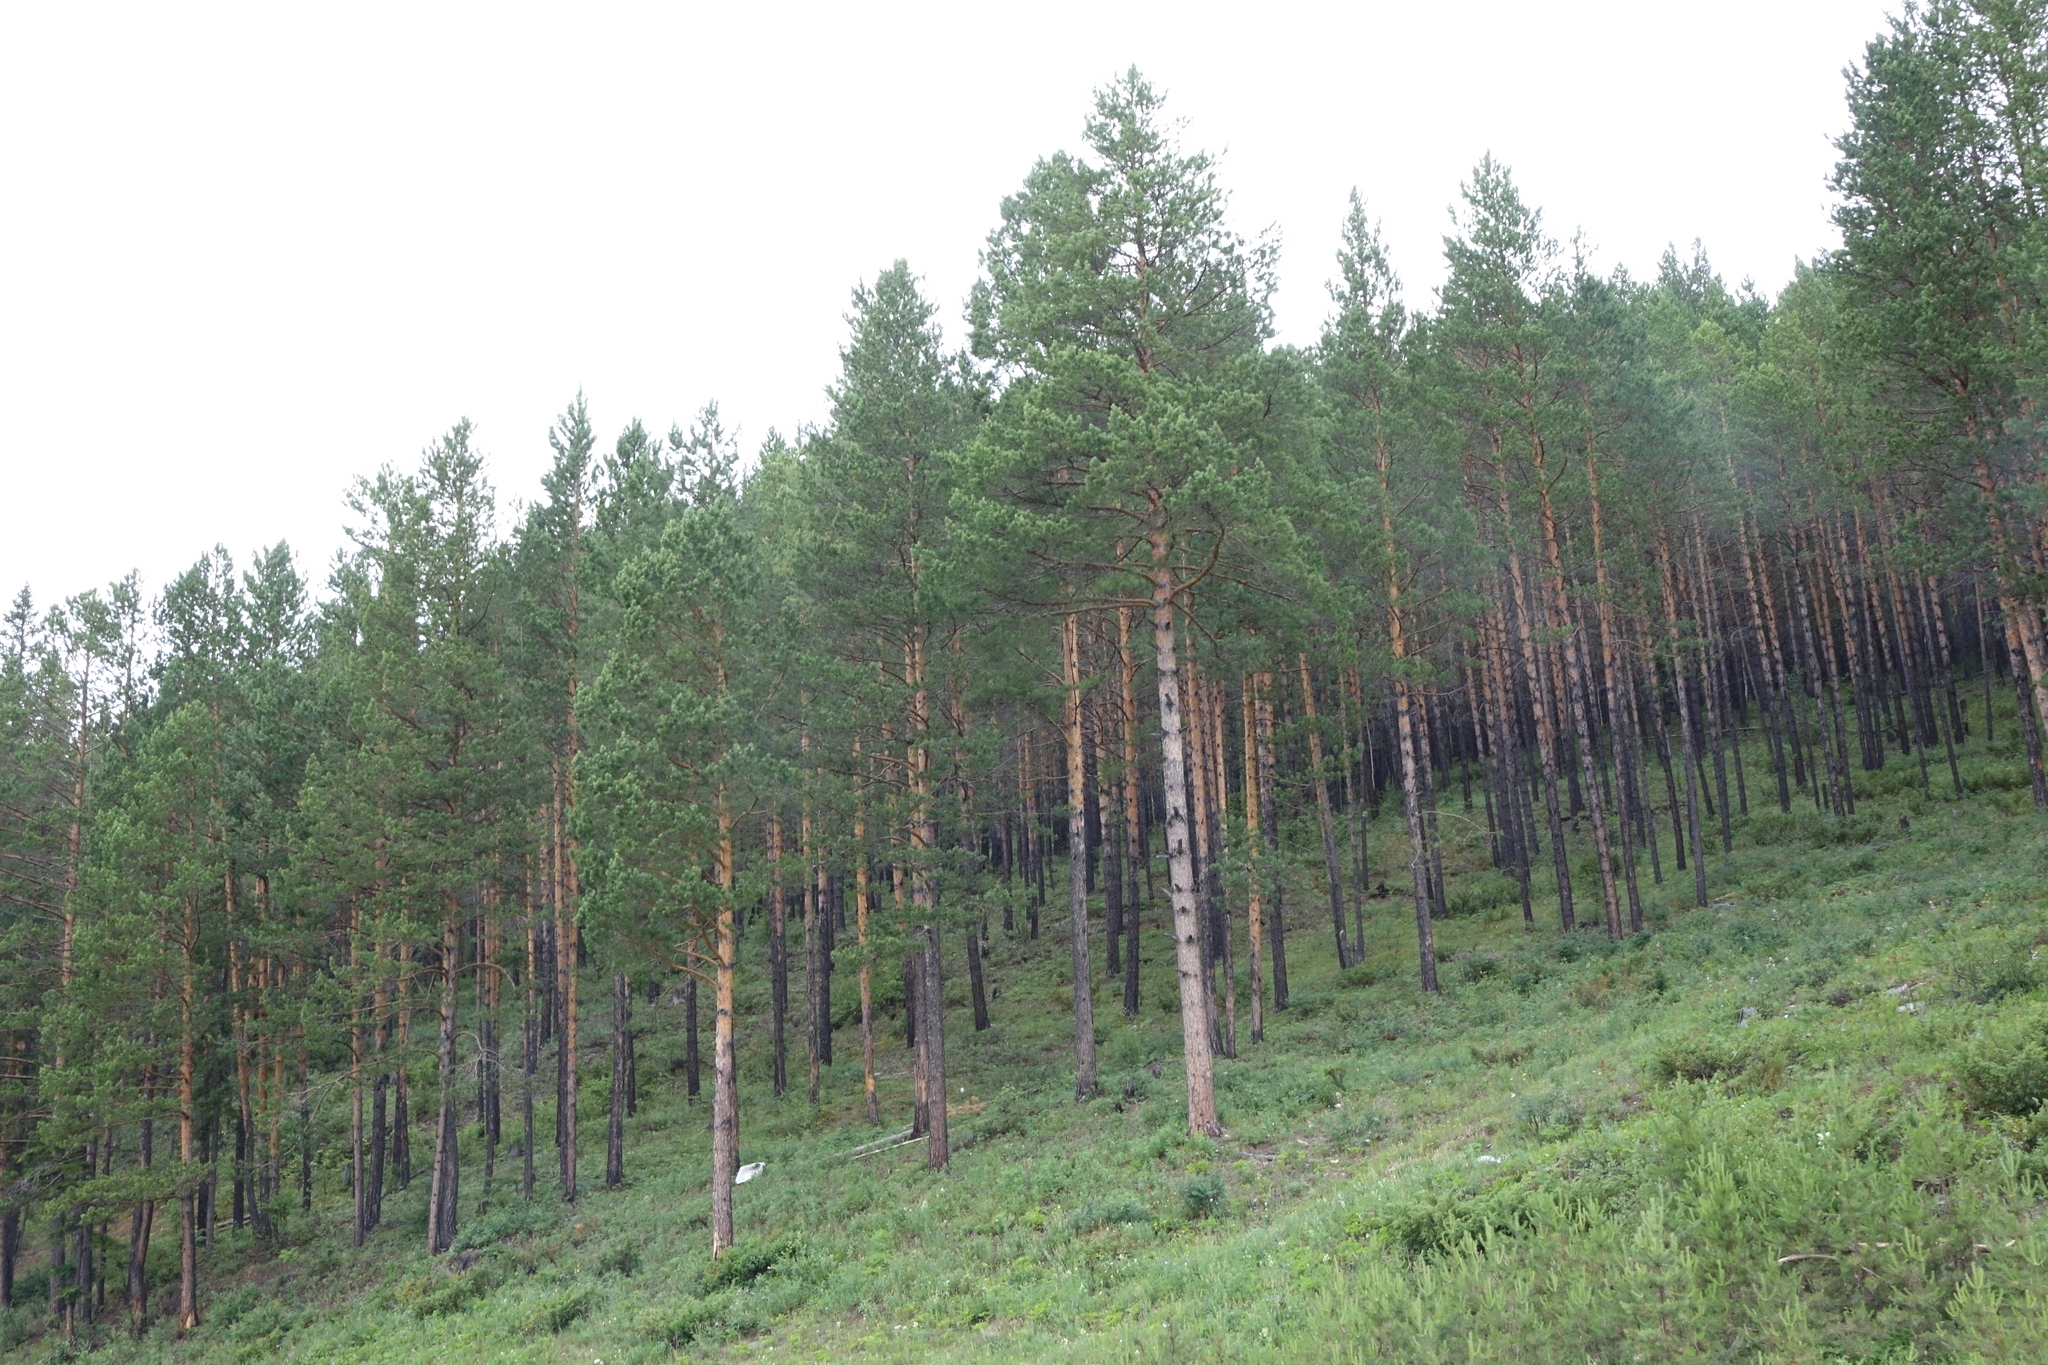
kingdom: Plantae
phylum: Tracheophyta
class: Pinopsida
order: Pinales
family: Pinaceae
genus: Pinus
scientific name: Pinus sylvestris
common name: Scots pine
